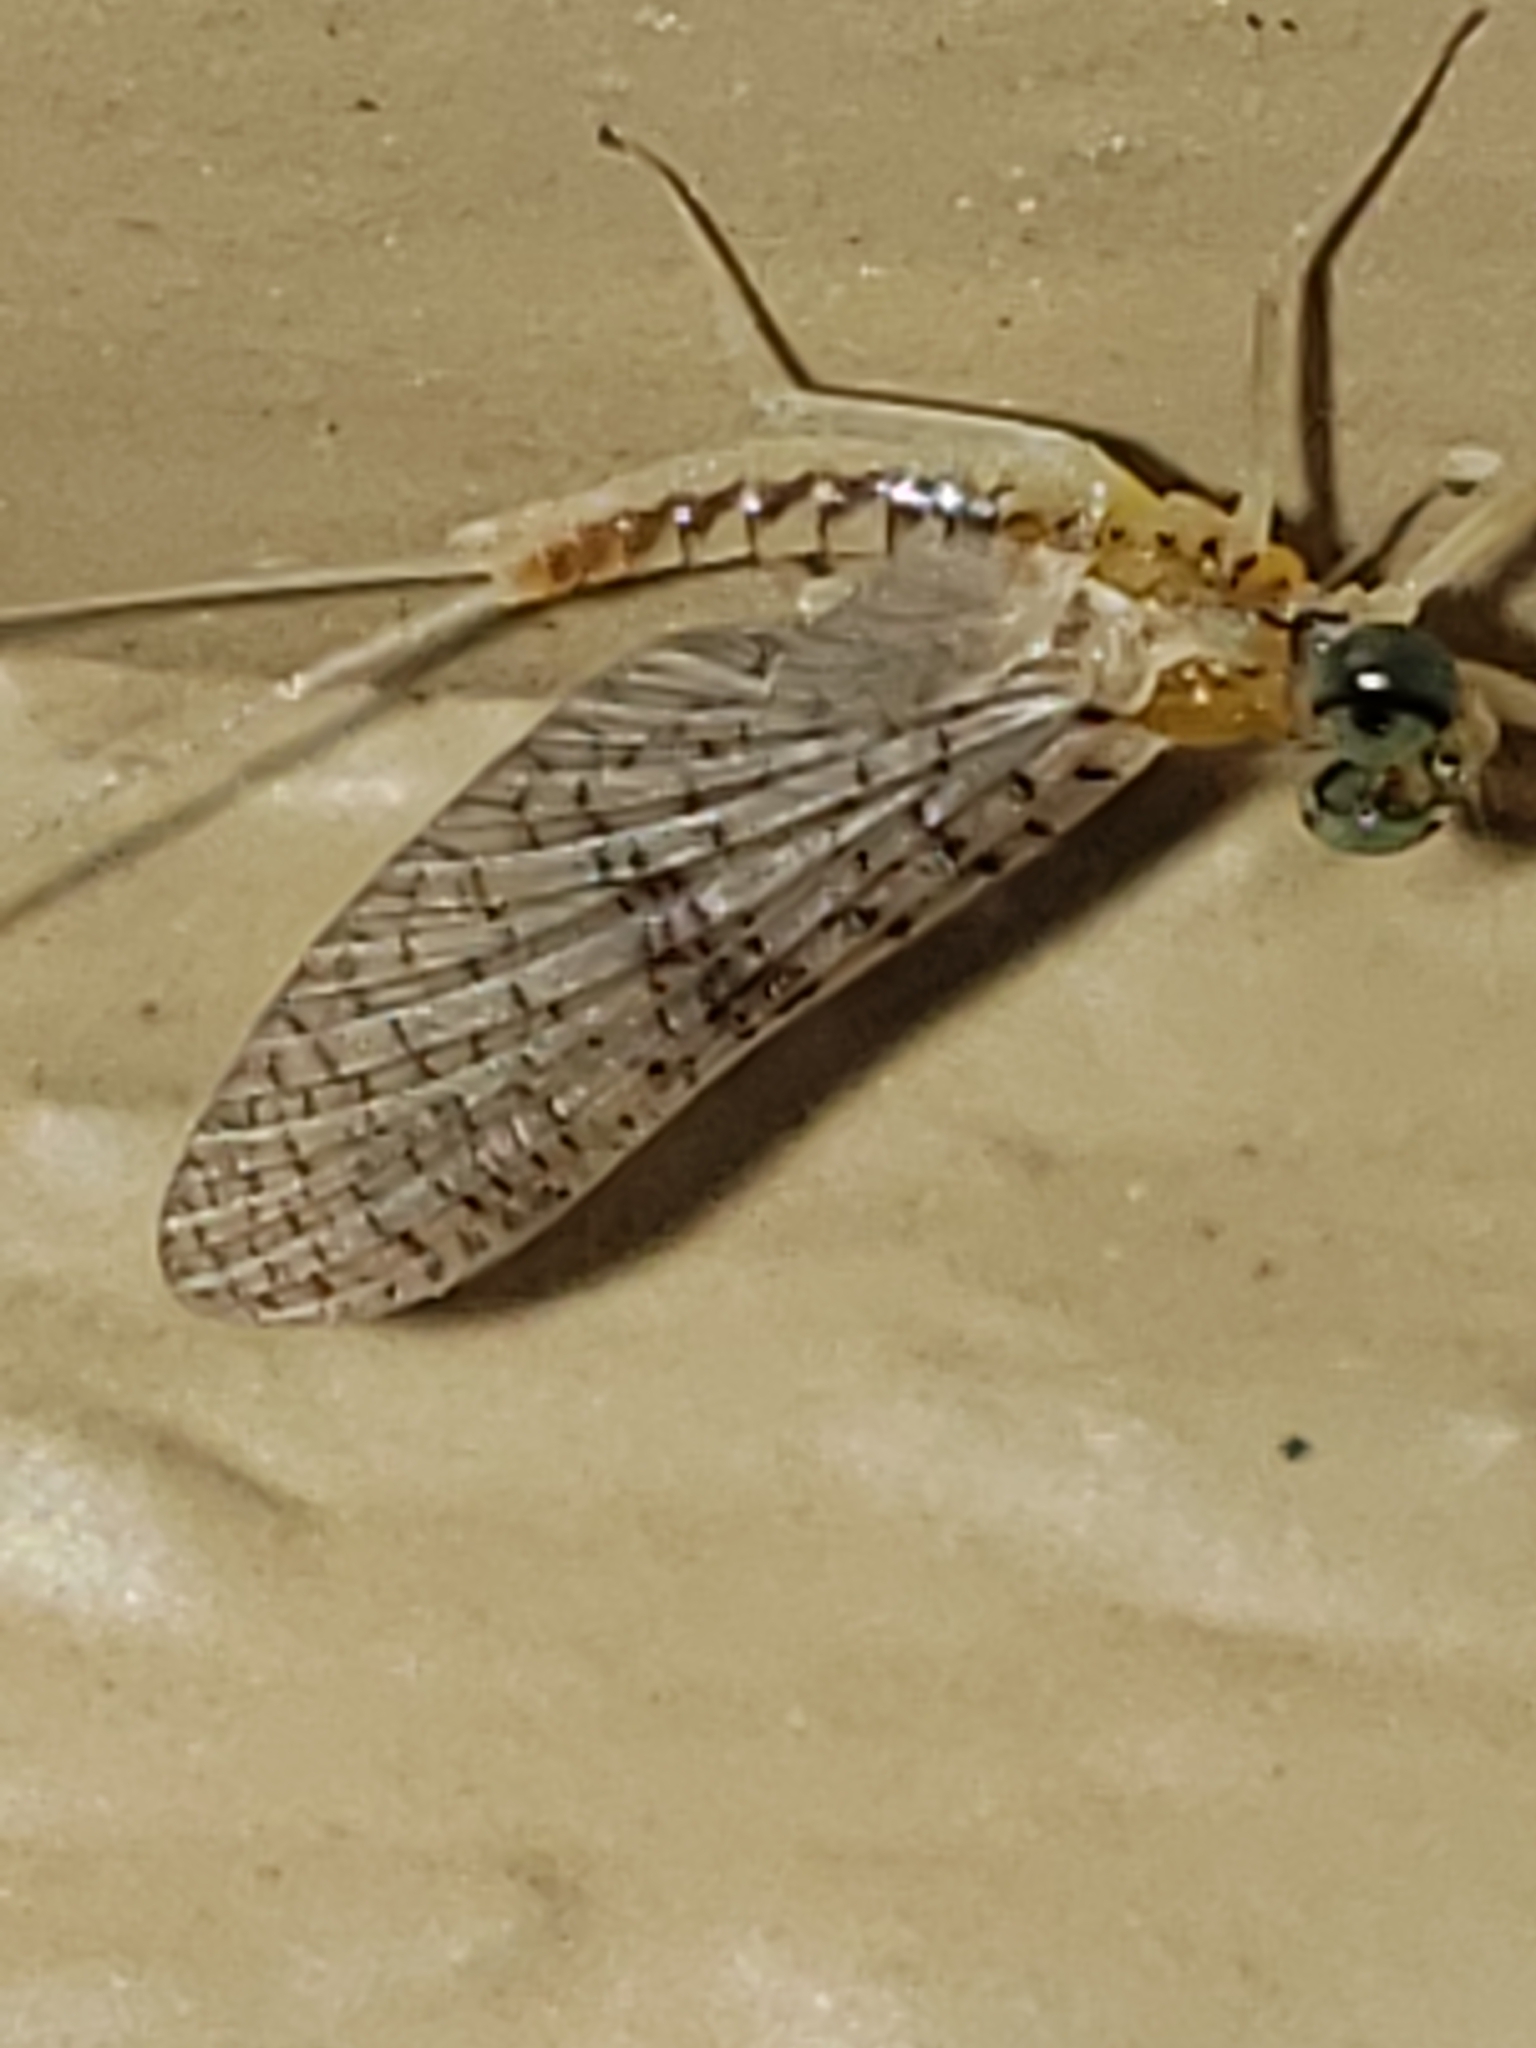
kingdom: Animalia
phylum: Arthropoda
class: Insecta
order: Ephemeroptera
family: Heptageniidae
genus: Leucrocuta
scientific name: Leucrocuta aphrodite
